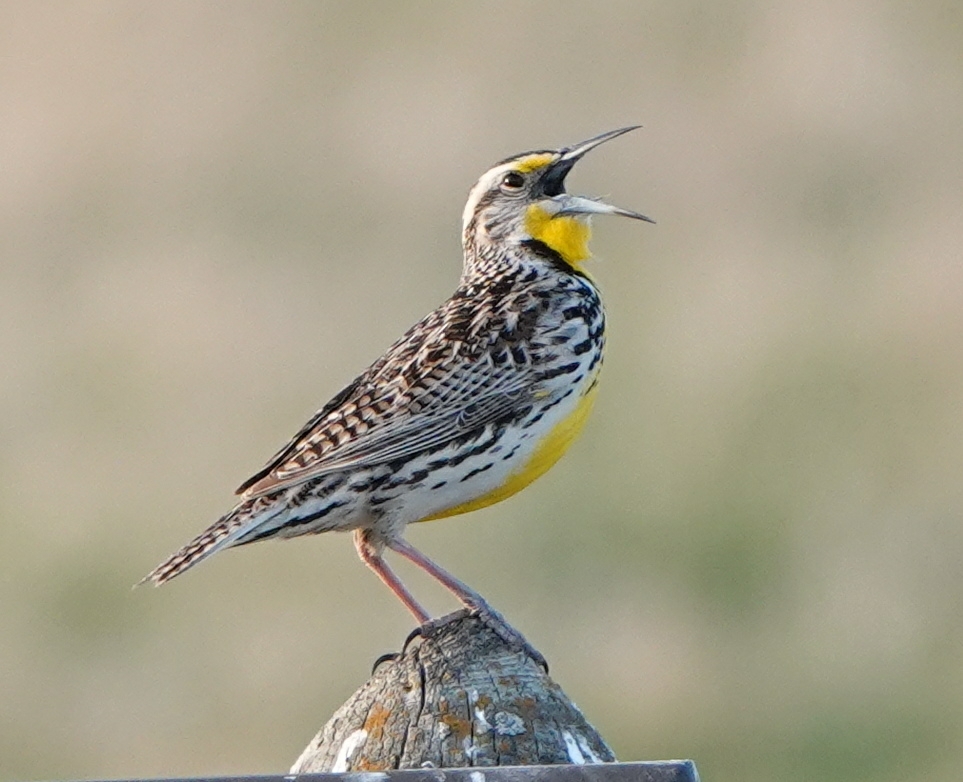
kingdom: Animalia
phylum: Chordata
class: Aves
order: Passeriformes
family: Icteridae
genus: Sturnella
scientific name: Sturnella neglecta
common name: Western meadowlark
